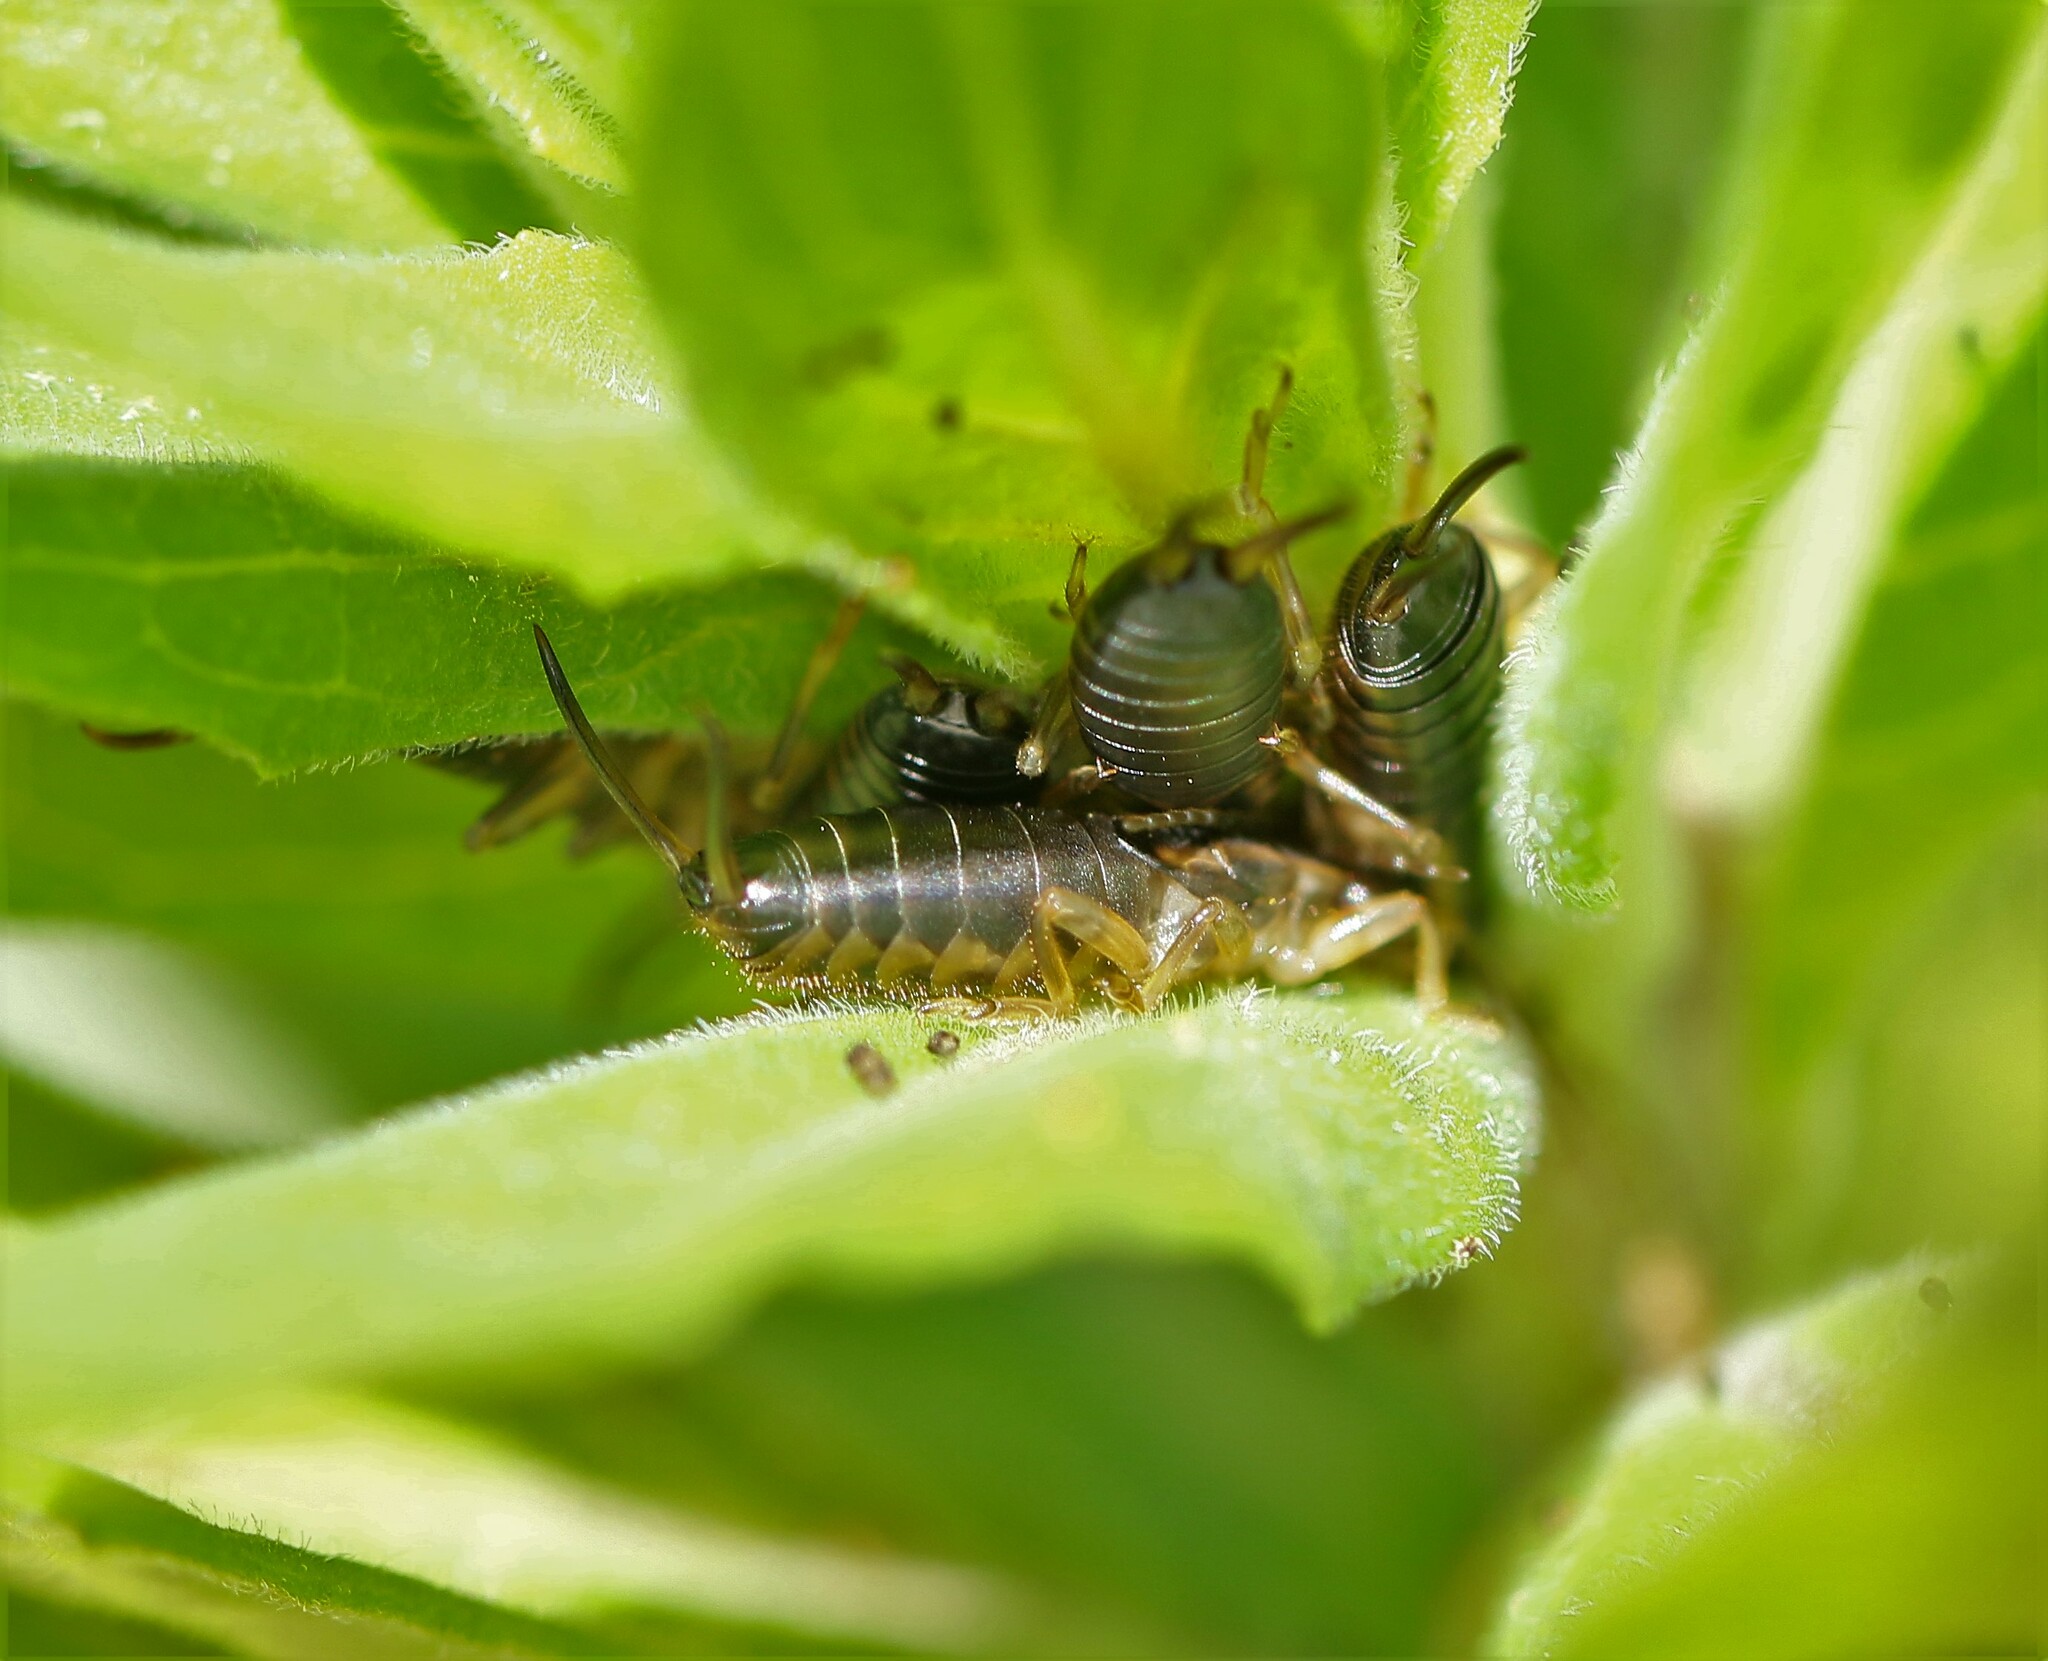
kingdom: Animalia
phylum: Arthropoda
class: Insecta
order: Dermaptera
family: Forficulidae
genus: Forficula
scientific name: Forficula
